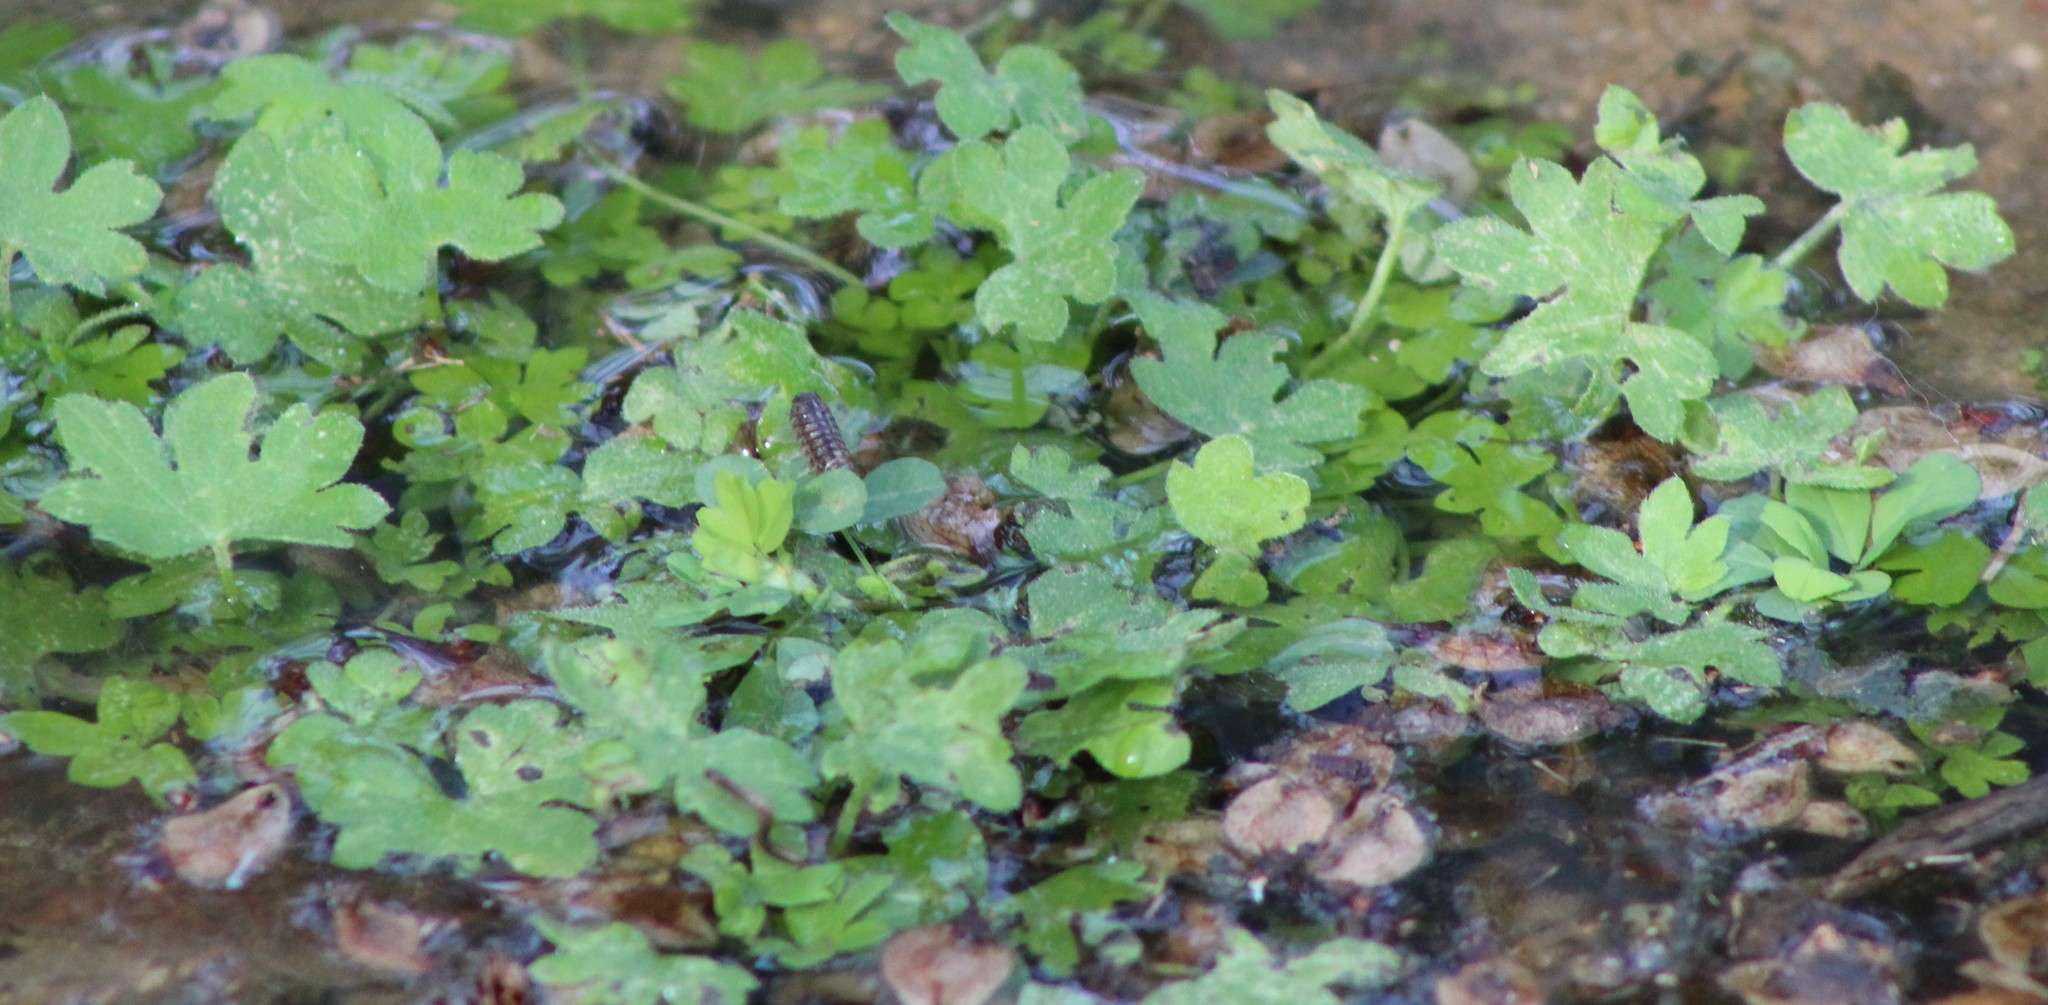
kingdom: Plantae
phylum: Tracheophyta
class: Magnoliopsida
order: Apiales
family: Apiaceae
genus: Bowlesia
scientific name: Bowlesia incana
